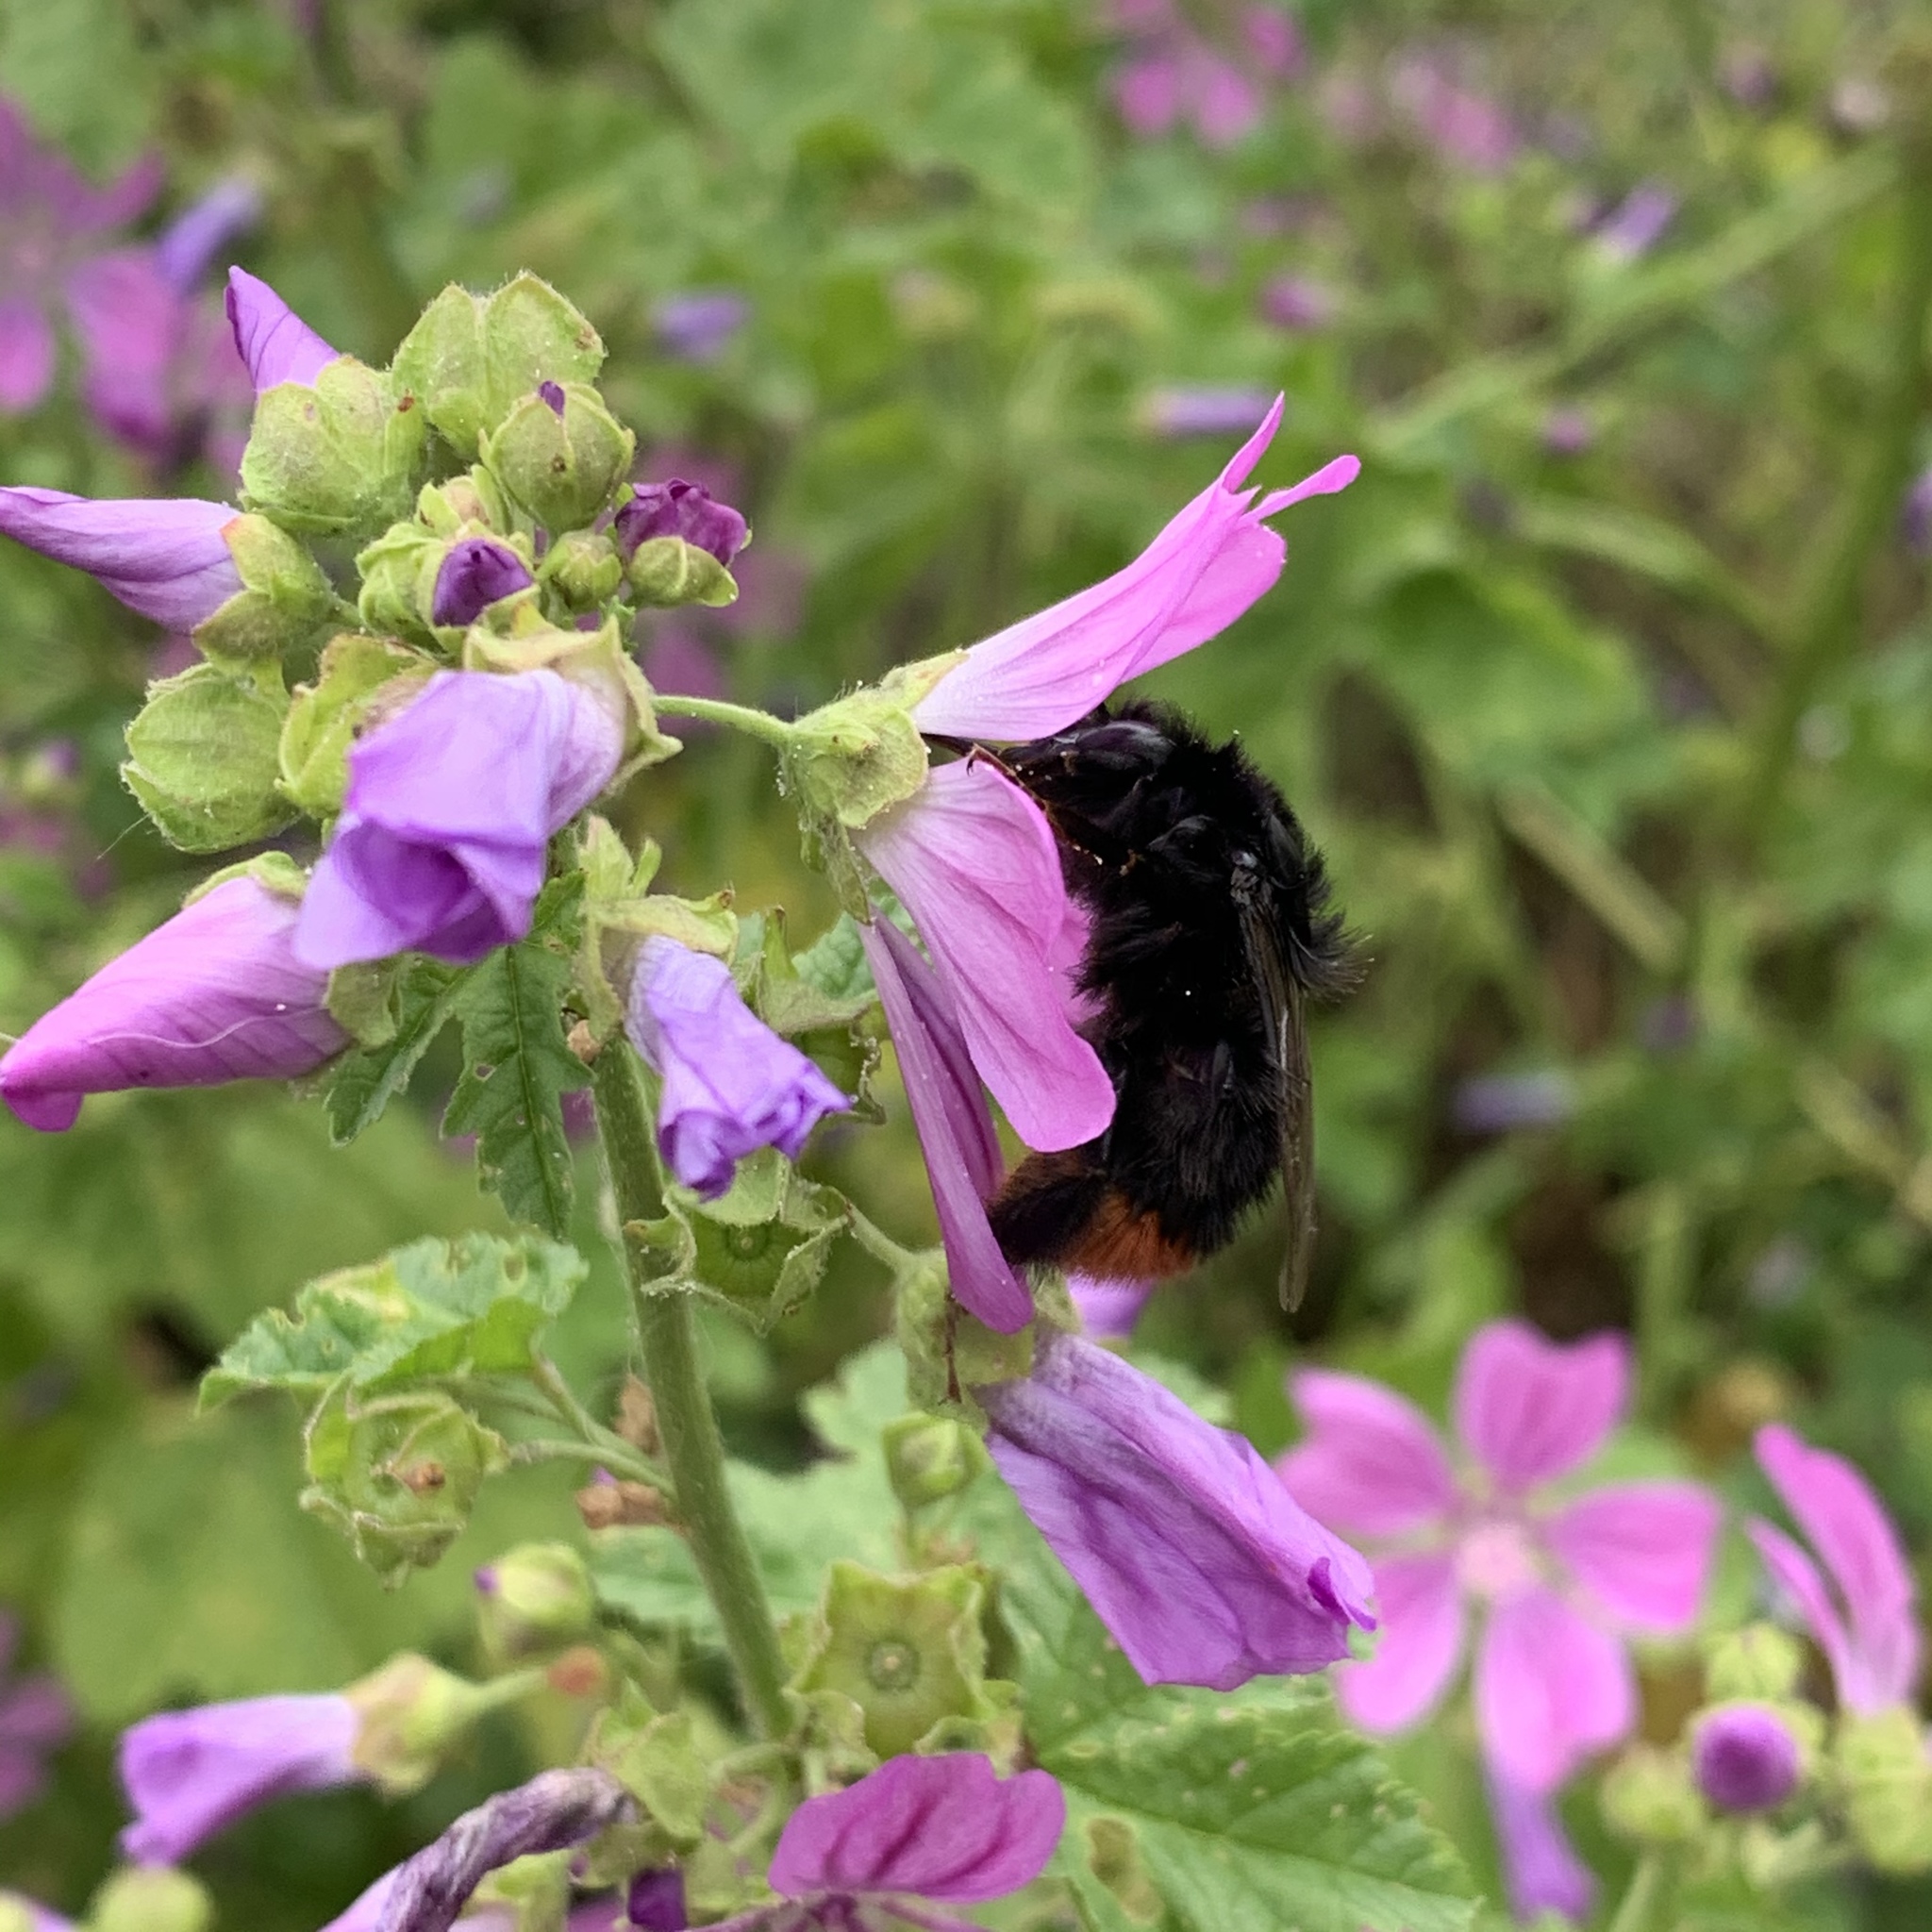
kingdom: Animalia
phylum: Arthropoda
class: Insecta
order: Hymenoptera
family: Apidae
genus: Bombus
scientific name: Bombus lapidarius
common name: Large red-tailed humble-bee
